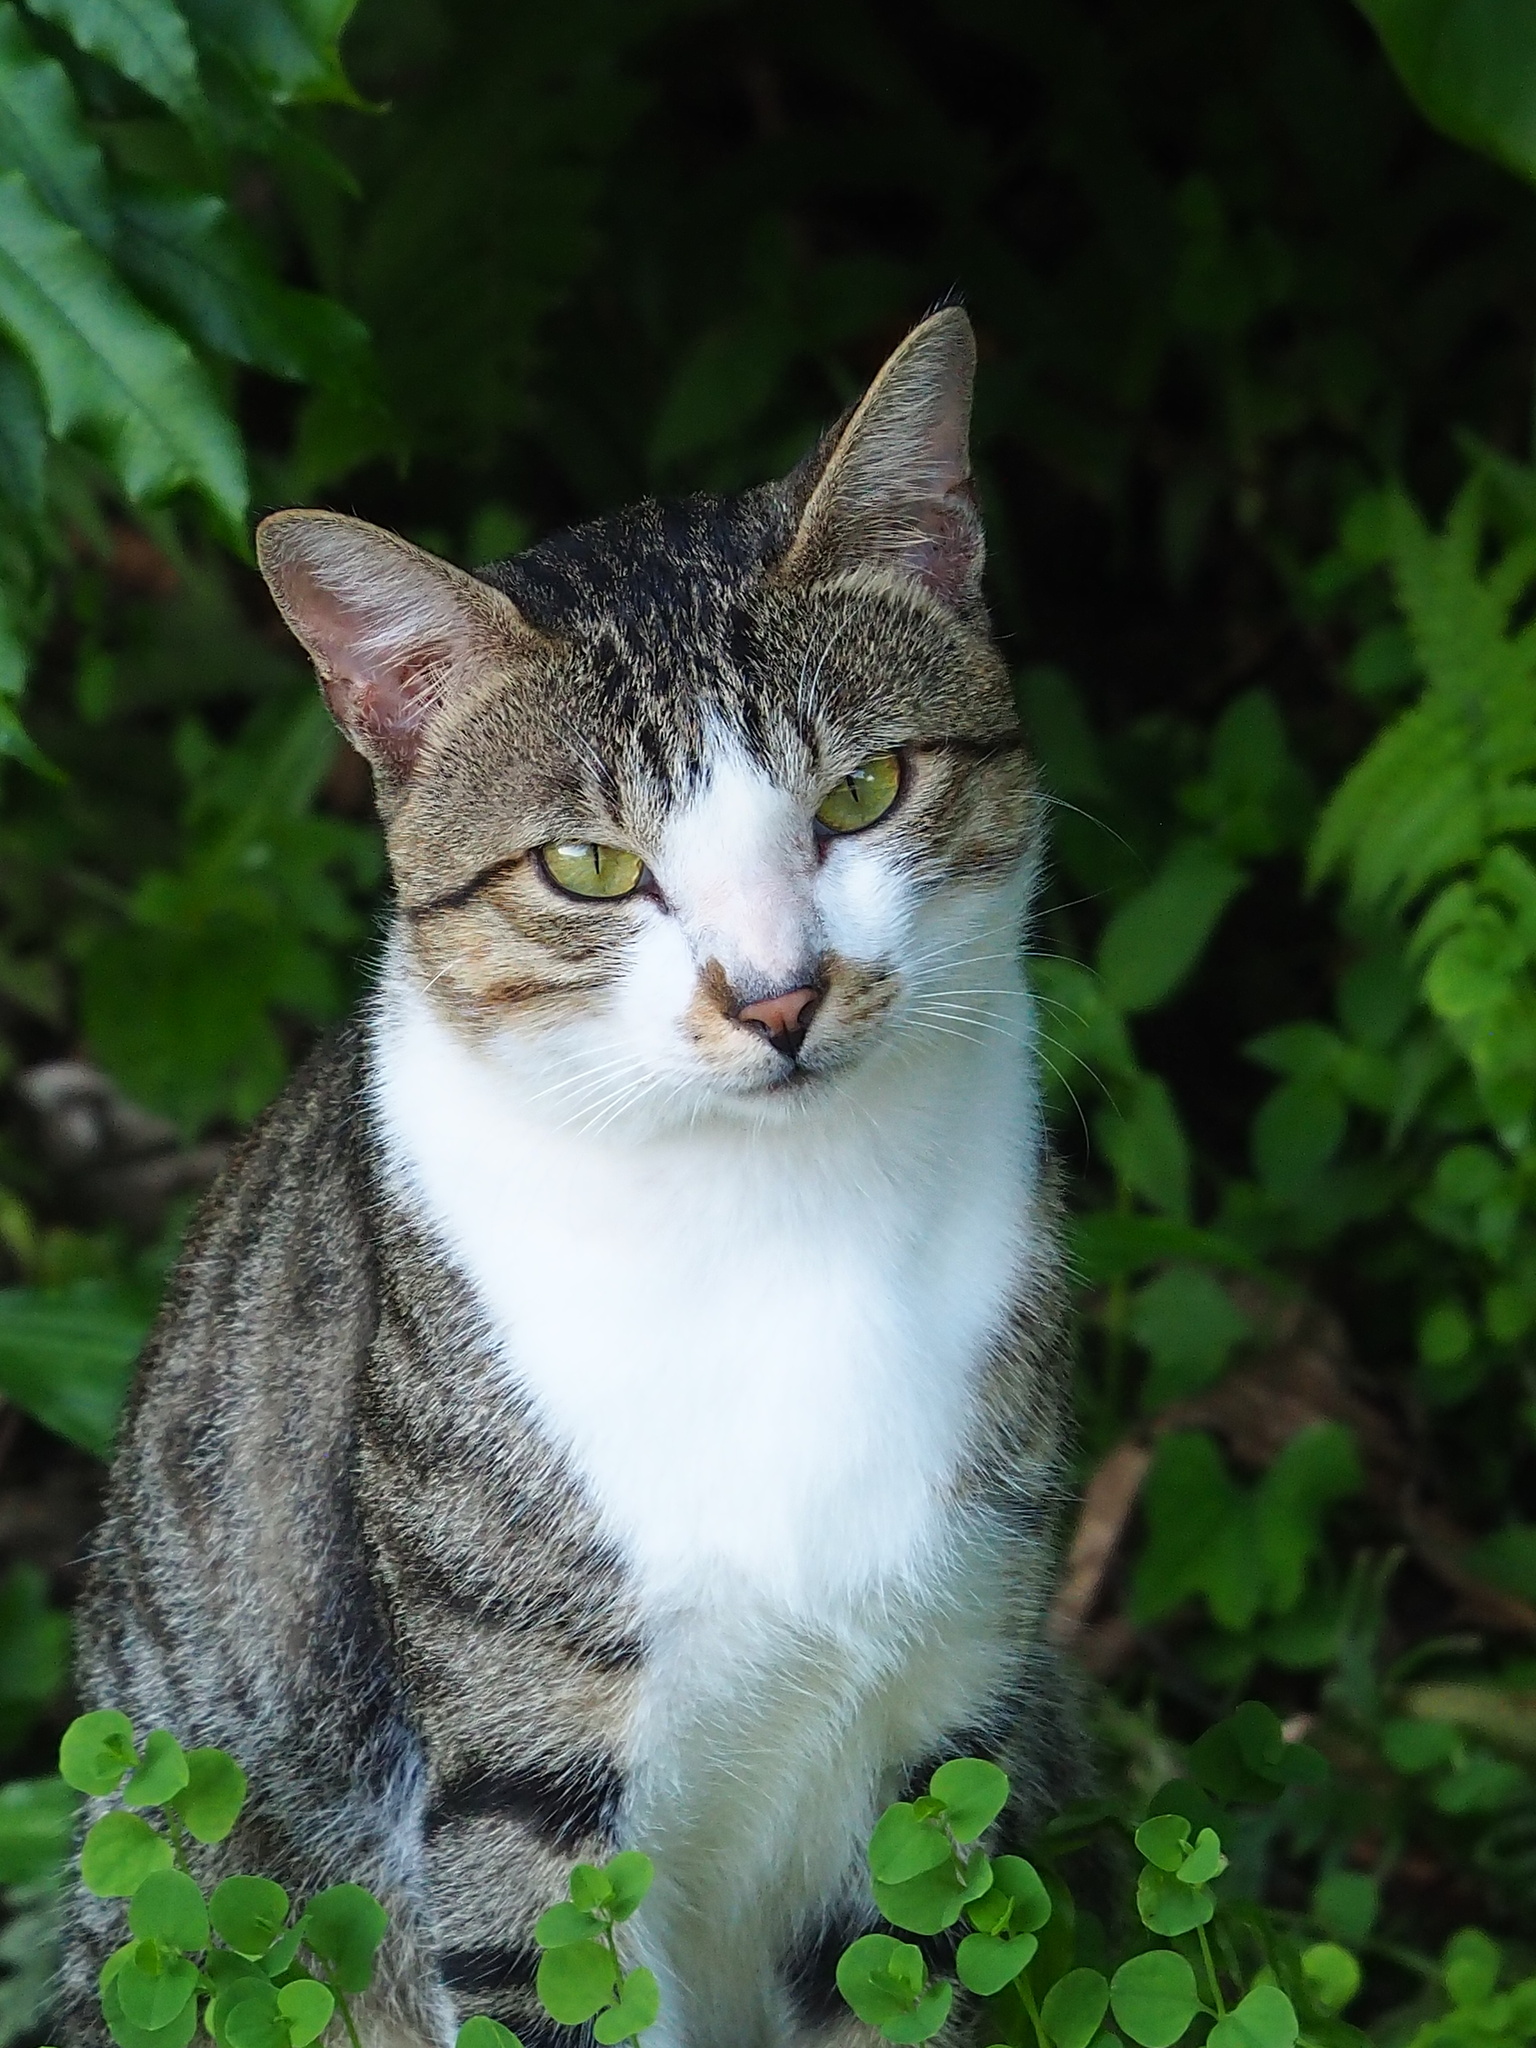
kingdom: Animalia
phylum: Chordata
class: Mammalia
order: Carnivora
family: Felidae
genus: Felis
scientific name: Felis catus
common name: Domestic cat
